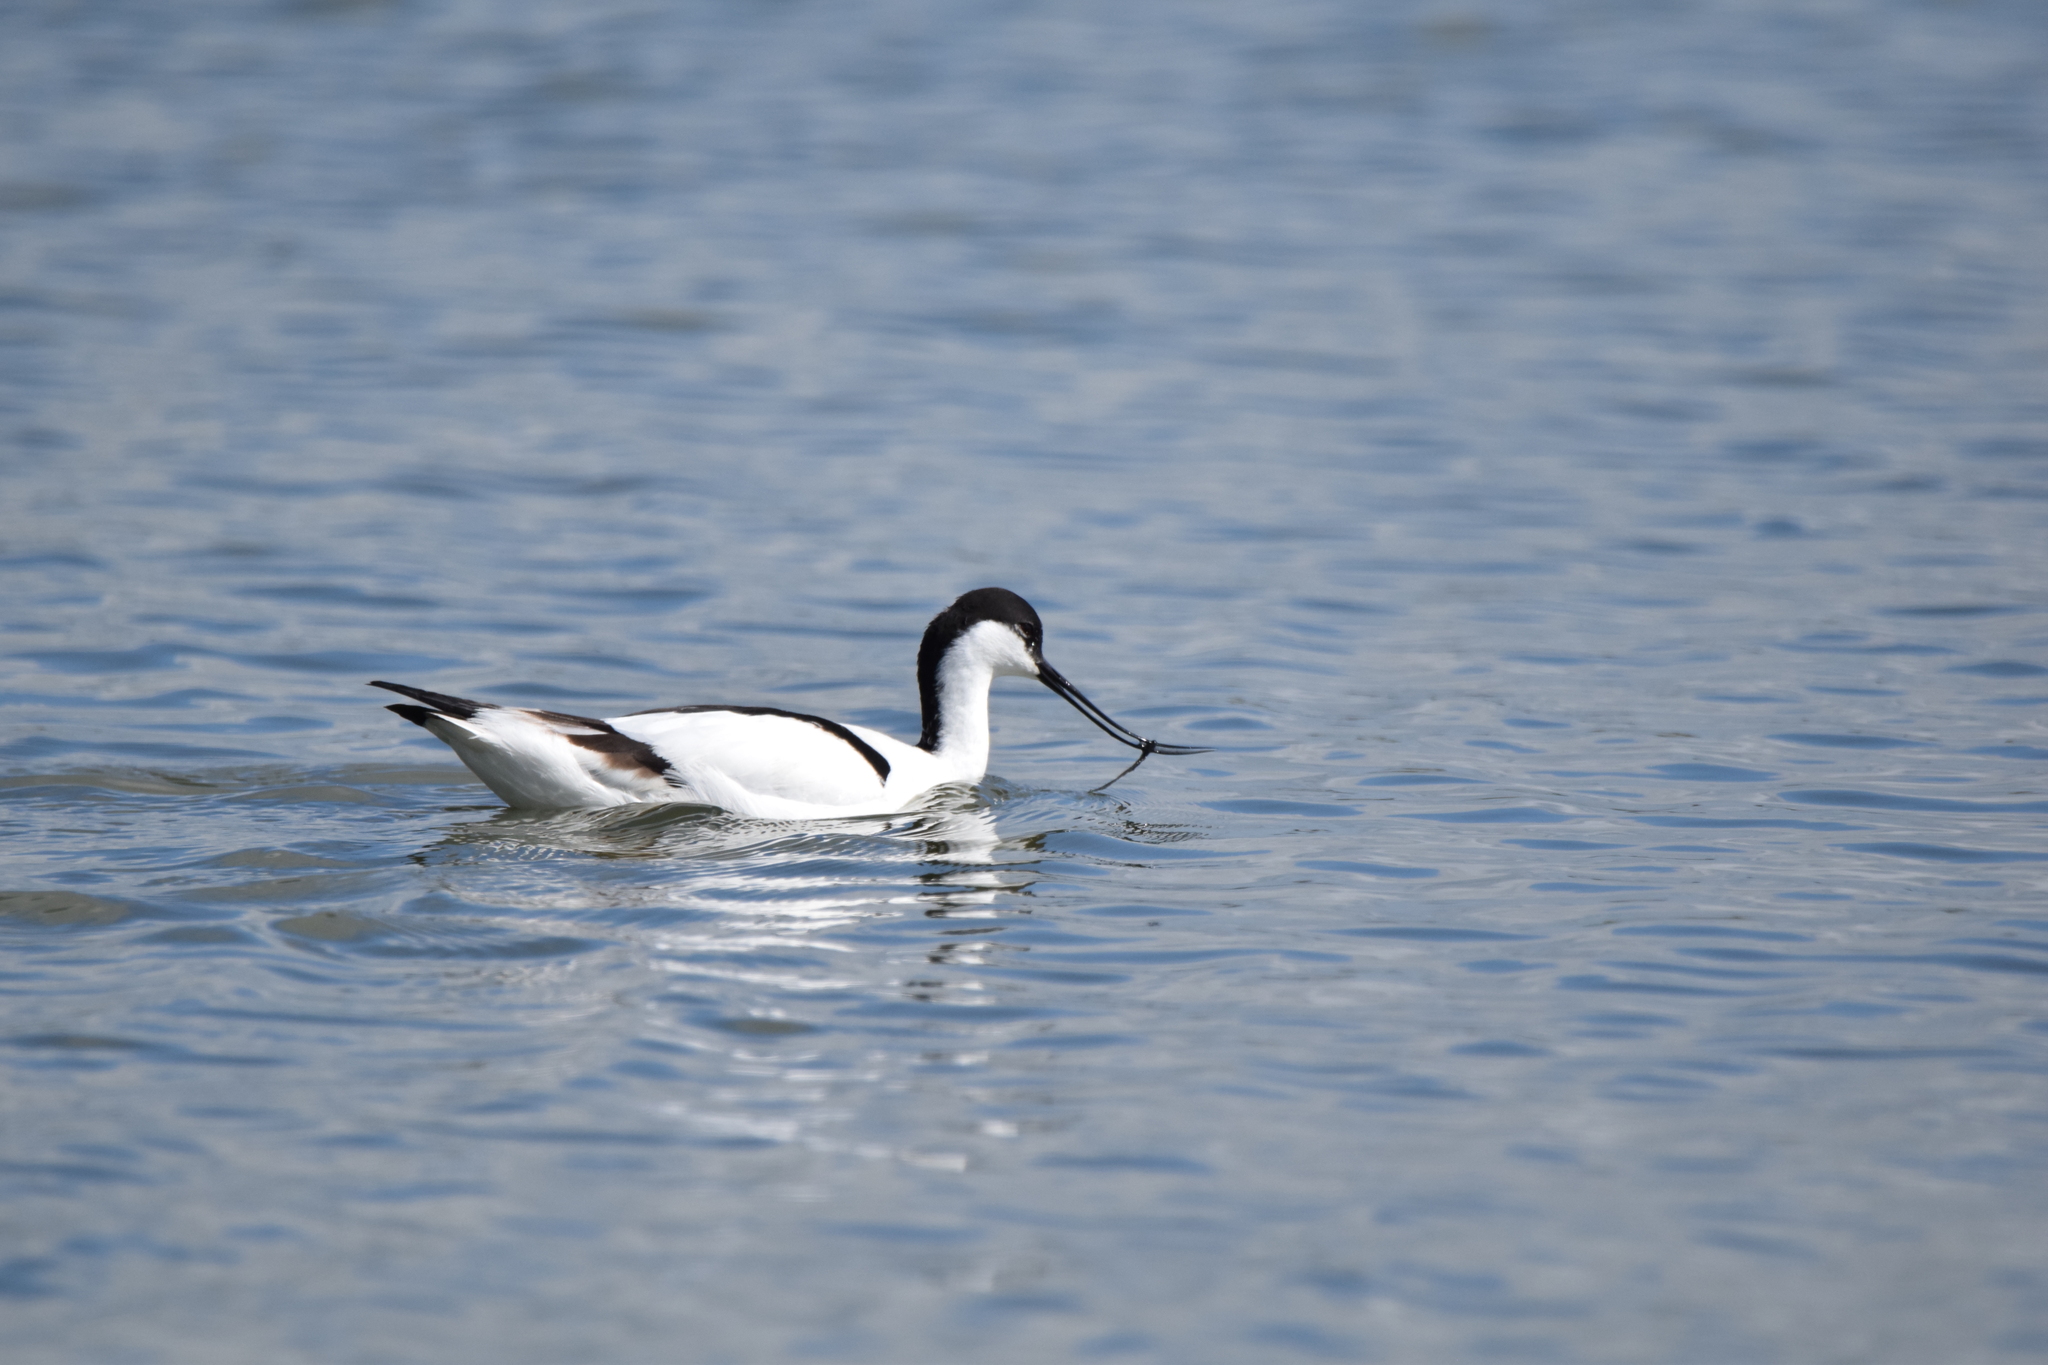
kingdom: Animalia
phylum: Chordata
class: Aves
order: Charadriiformes
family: Recurvirostridae
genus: Recurvirostra
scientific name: Recurvirostra avosetta
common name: Pied avocet
